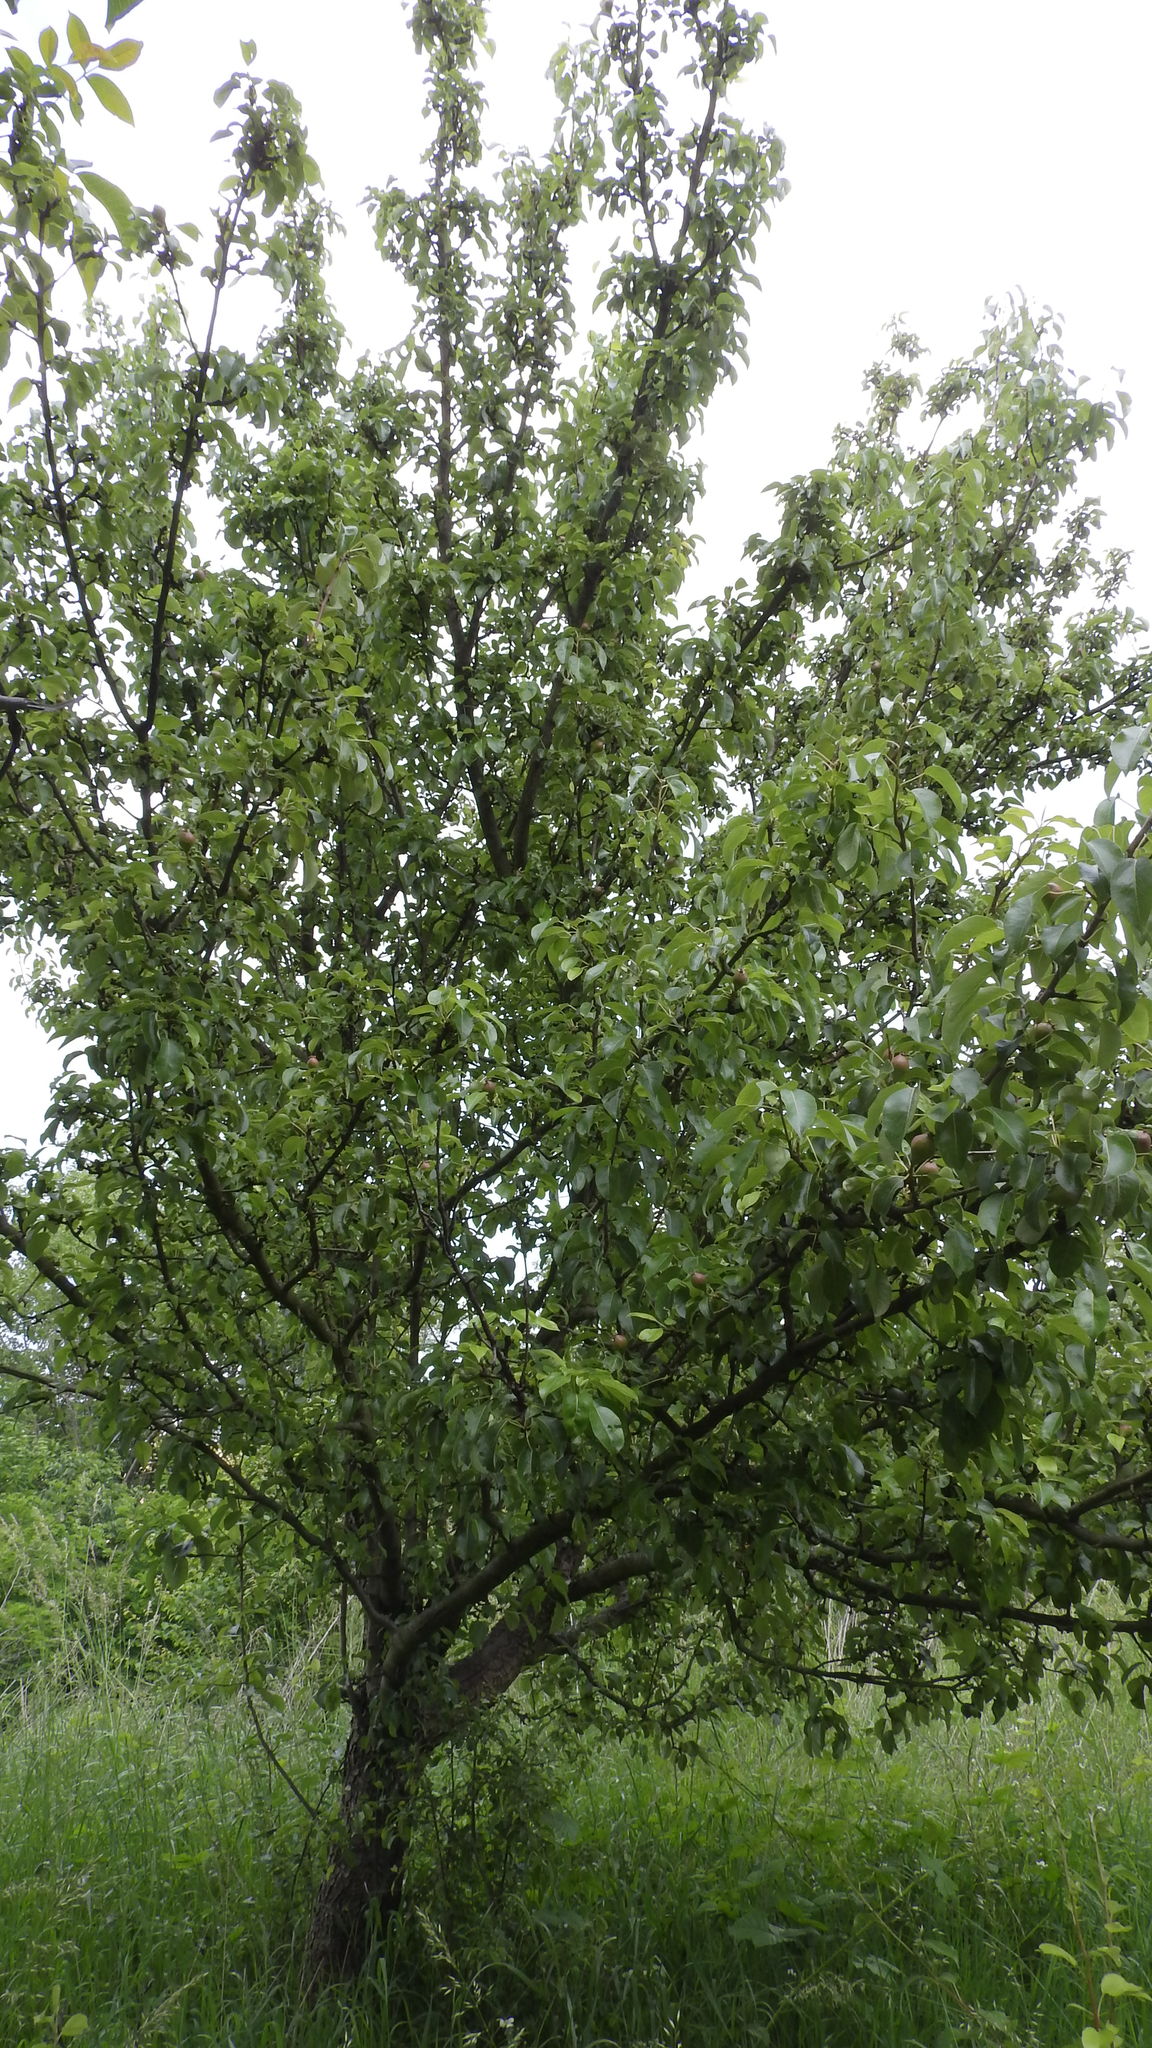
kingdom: Plantae
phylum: Tracheophyta
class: Magnoliopsida
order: Rosales
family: Rosaceae
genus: Pyrus
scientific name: Pyrus communis
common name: Pear
